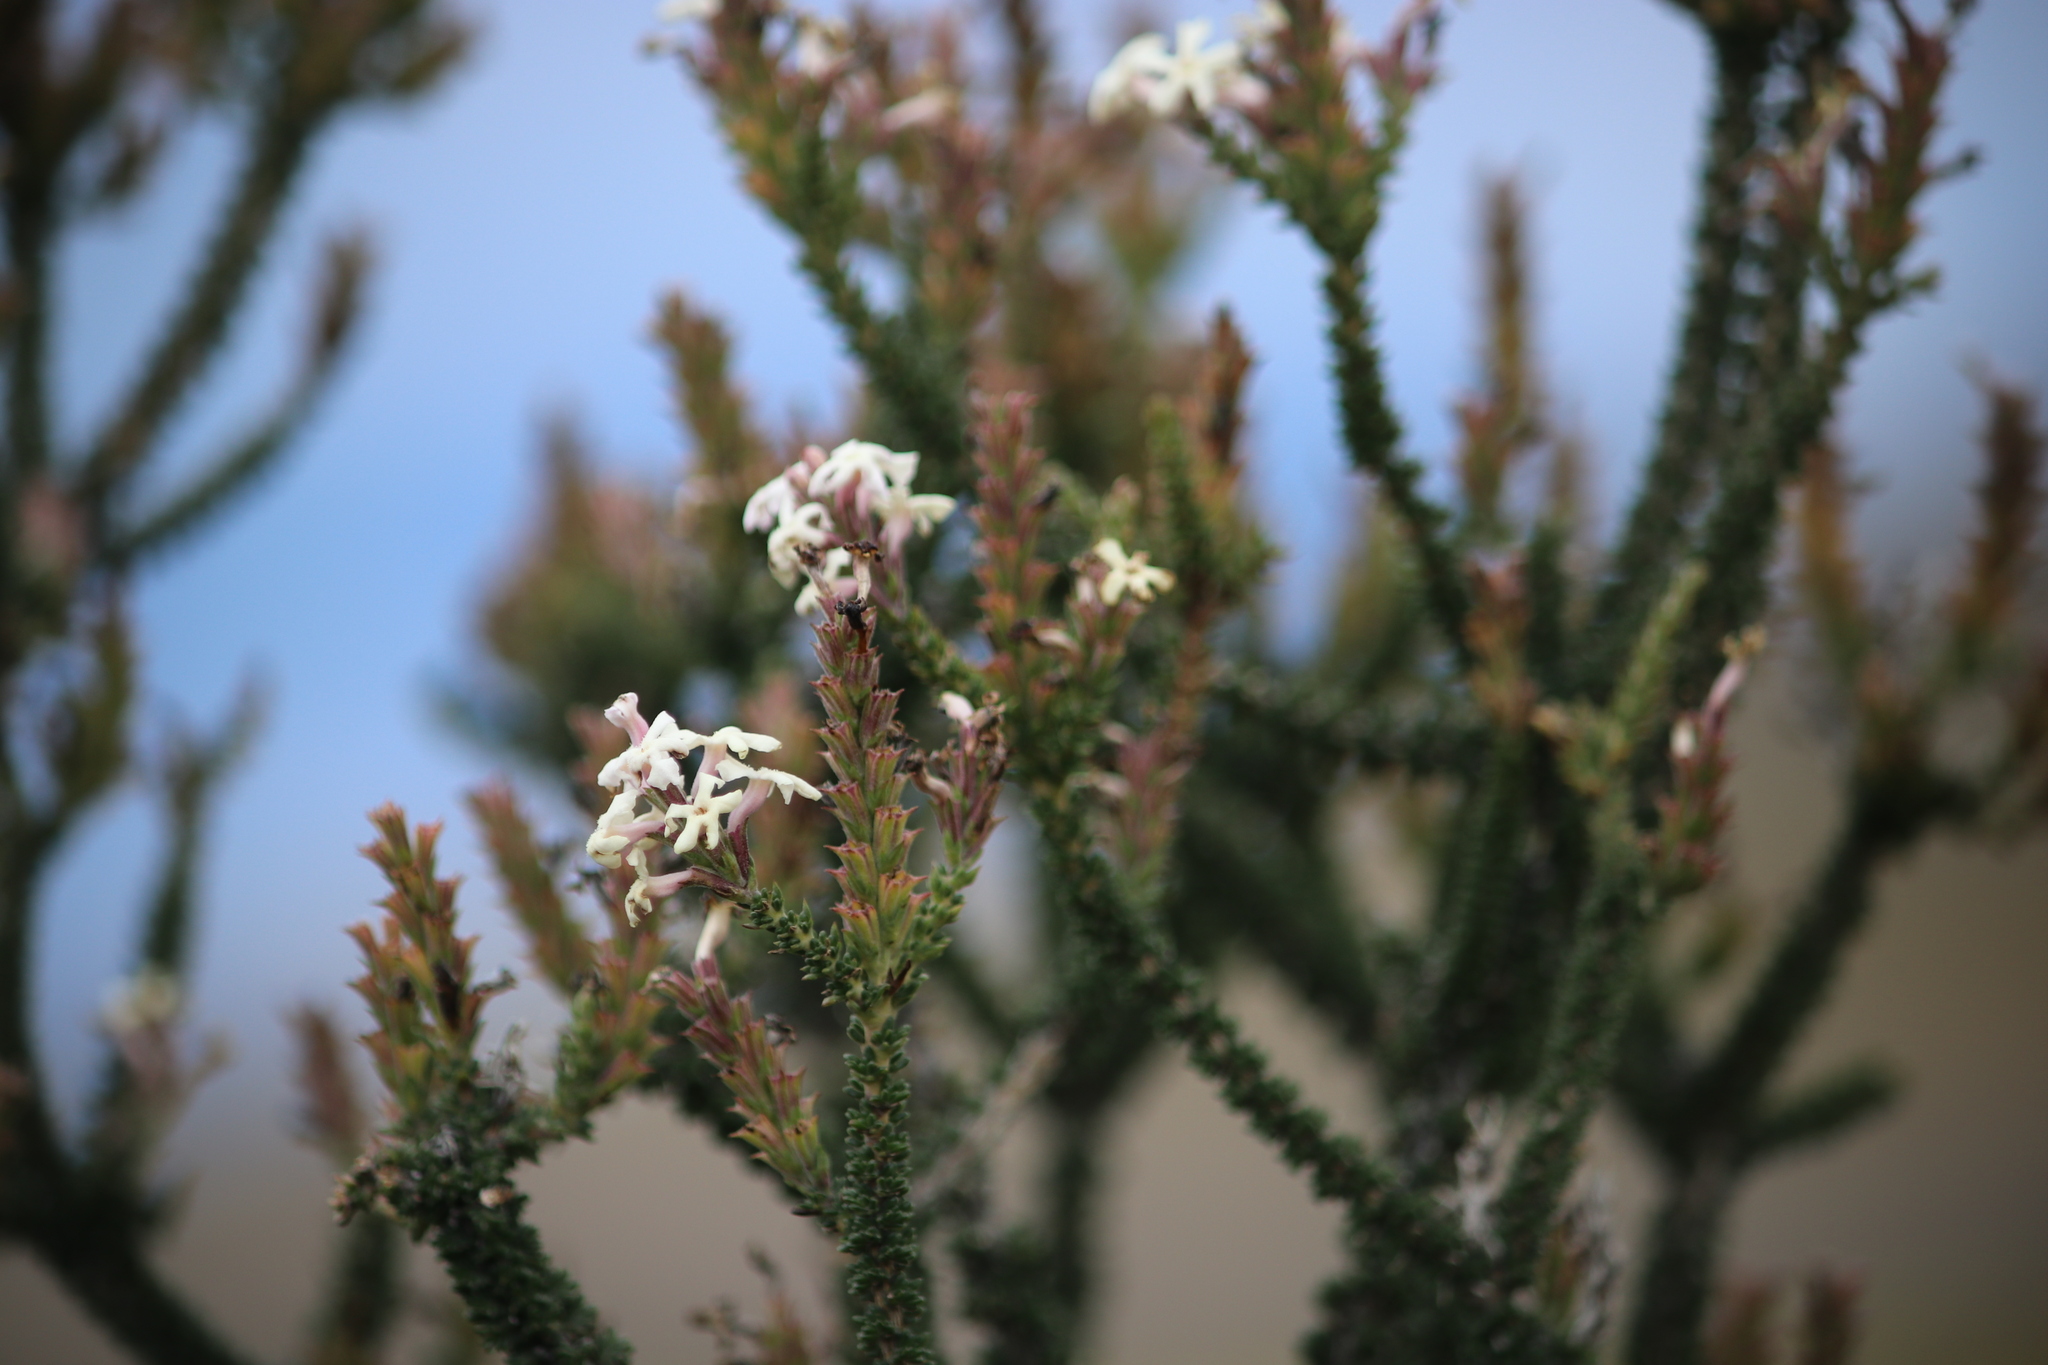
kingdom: Plantae
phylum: Tracheophyta
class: Magnoliopsida
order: Lamiales
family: Verbenaceae
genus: Mulguraea
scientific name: Mulguraea tridens
